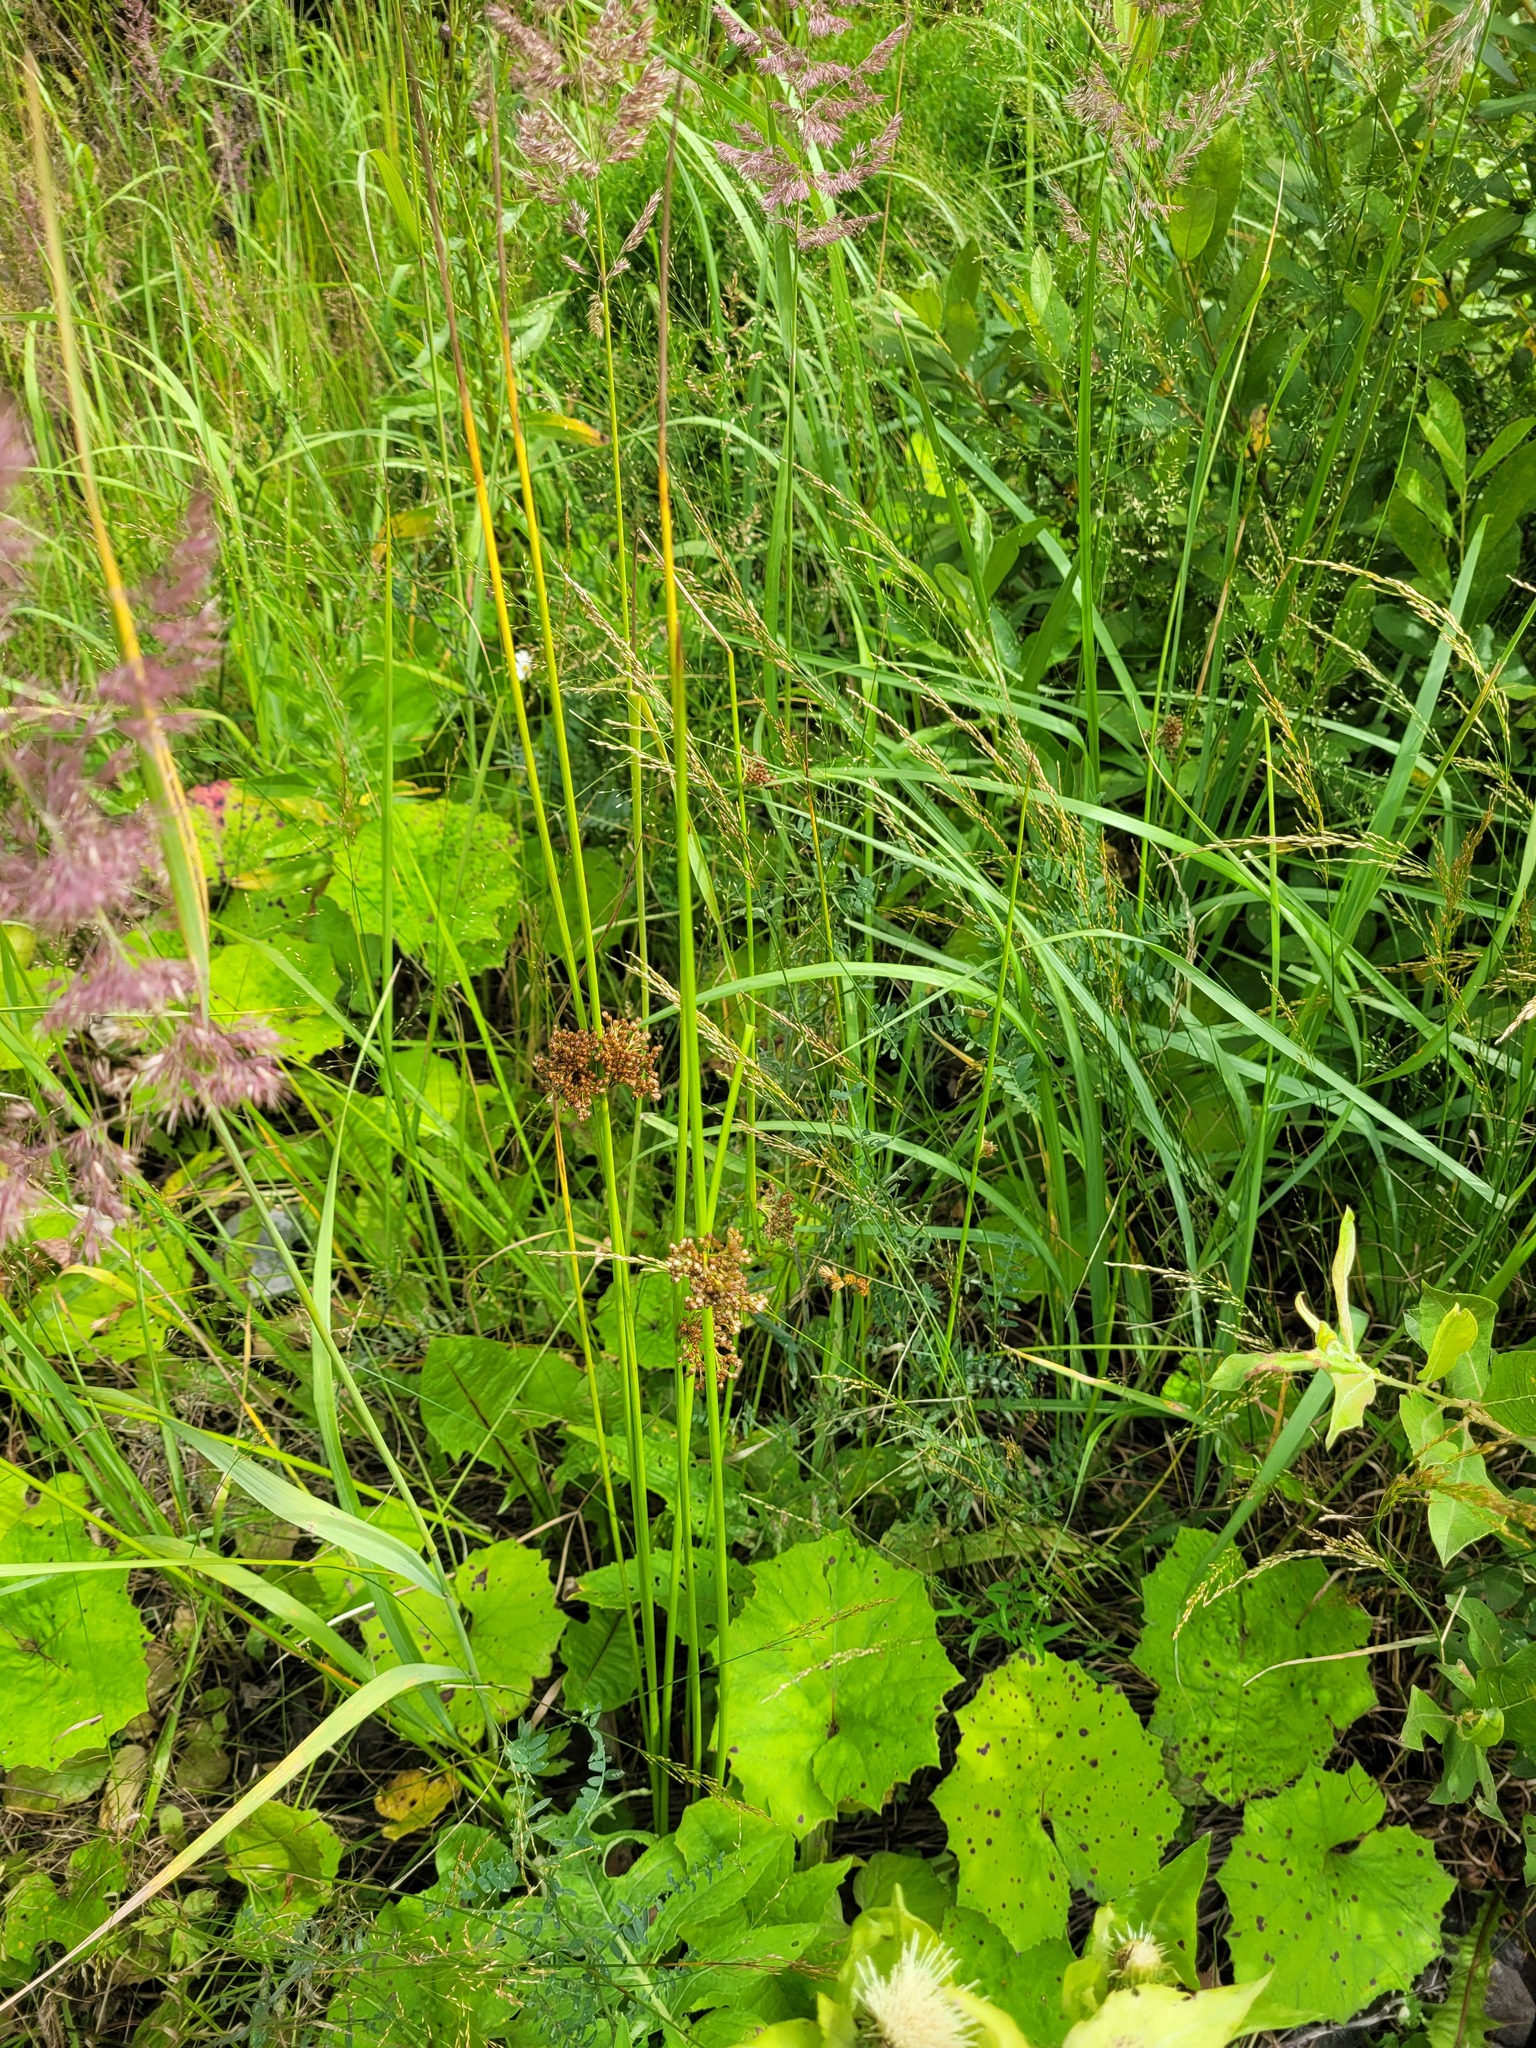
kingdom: Plantae
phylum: Tracheophyta
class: Liliopsida
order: Poales
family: Juncaceae
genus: Juncus
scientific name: Juncus effusus
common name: Soft rush
